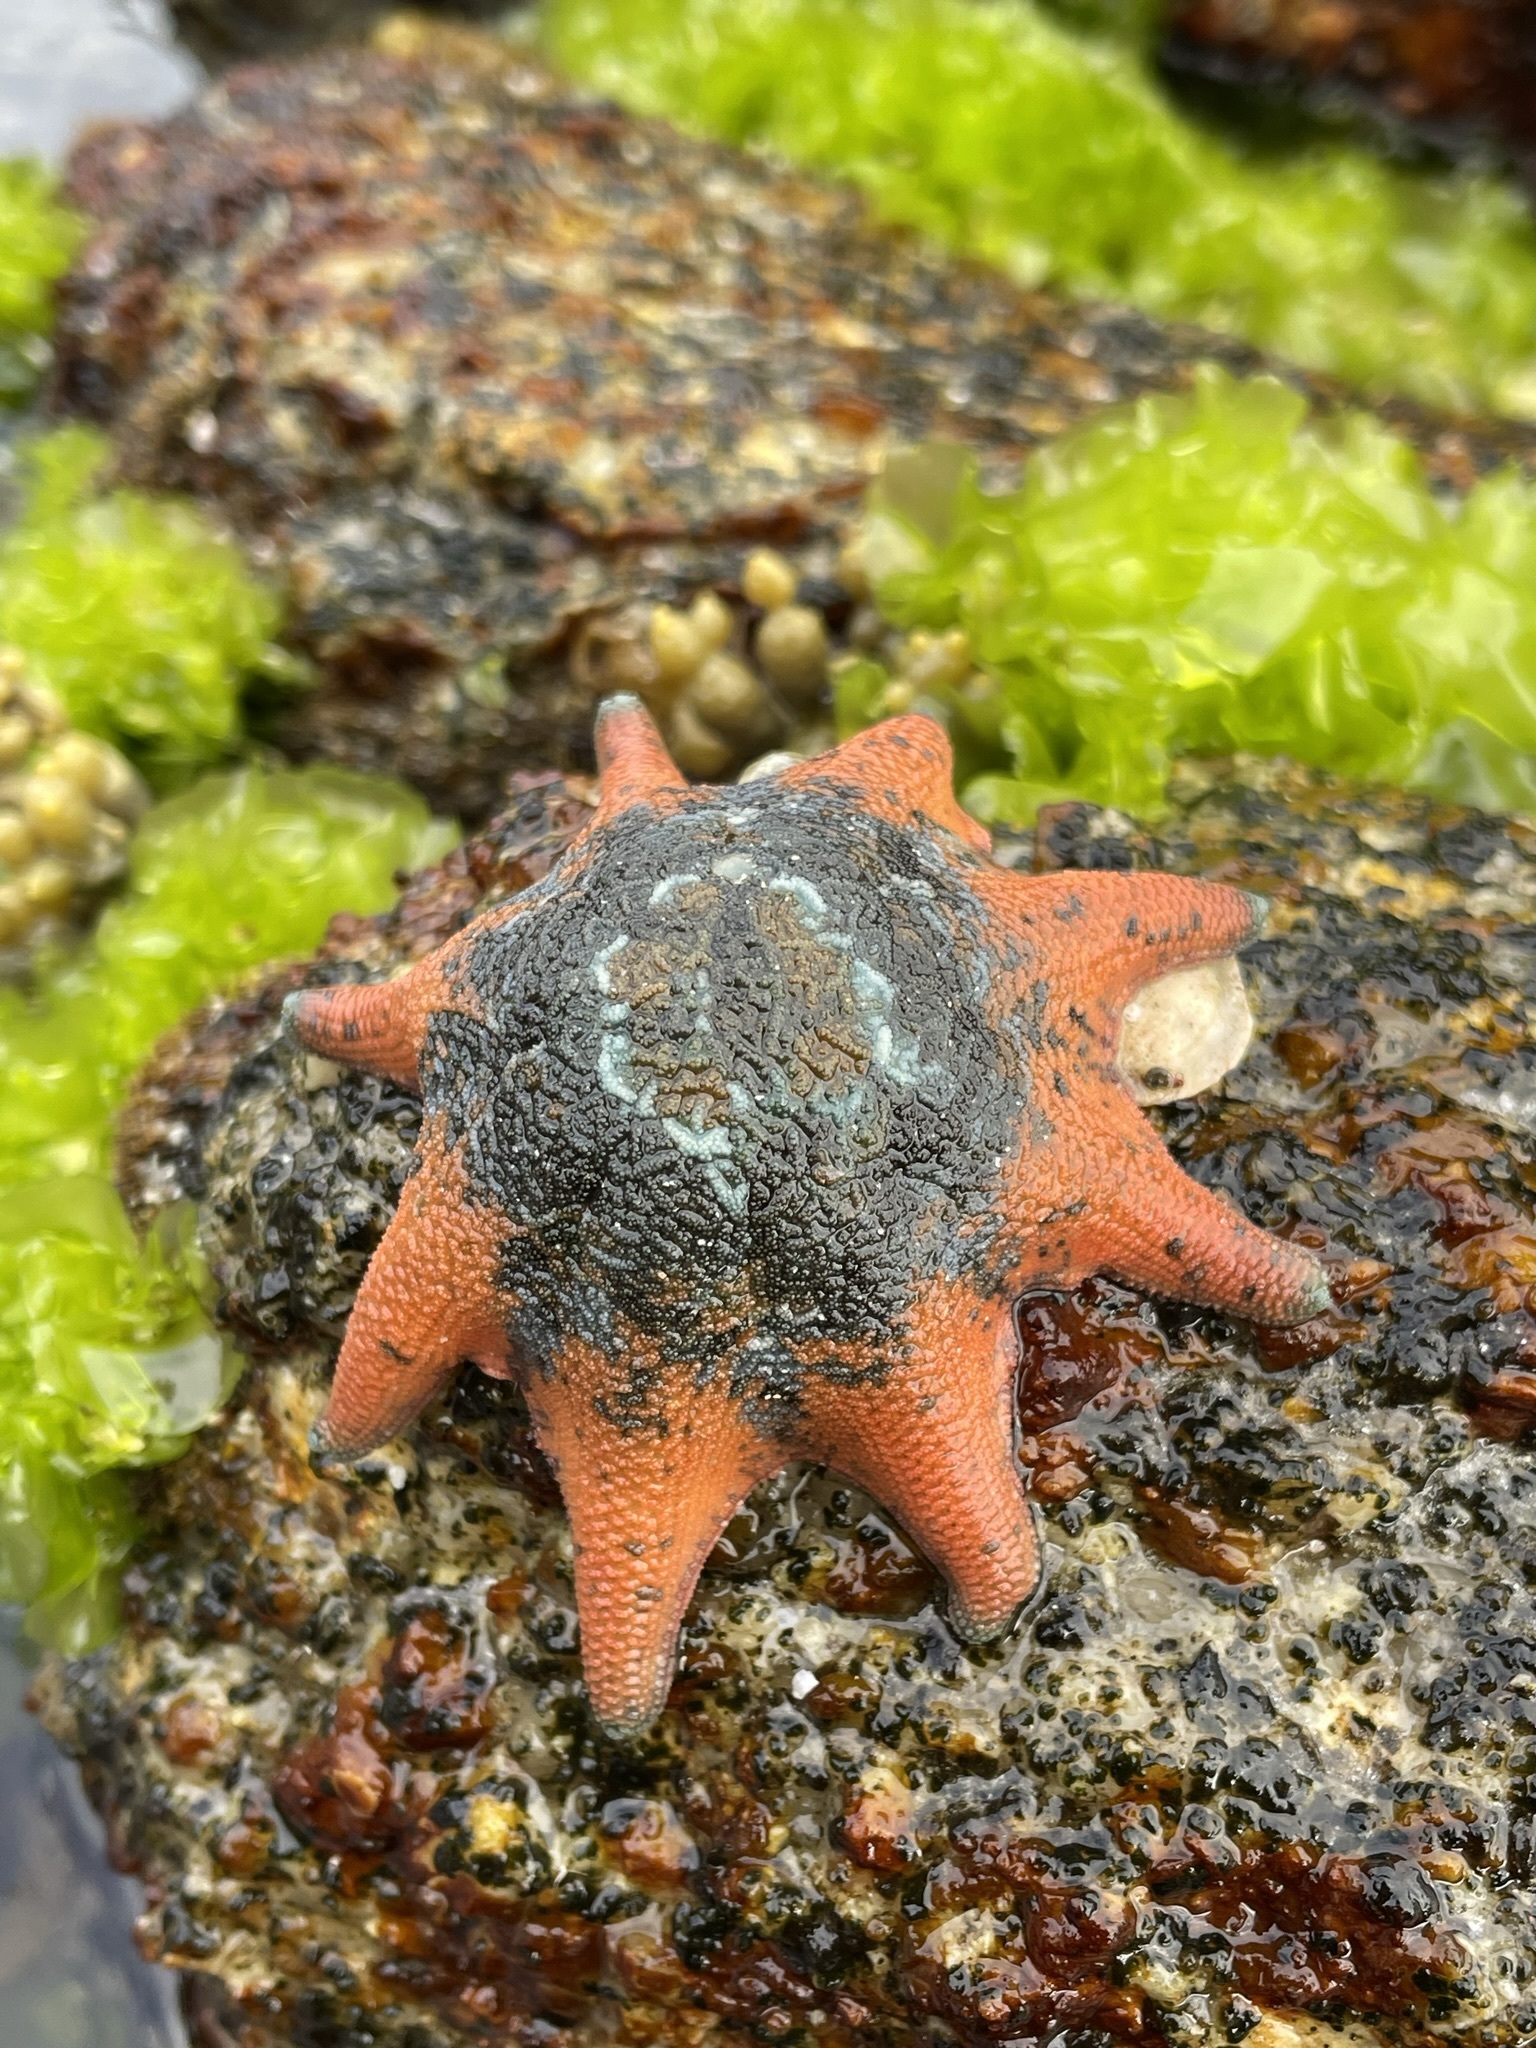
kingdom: Animalia
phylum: Echinodermata
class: Asteroidea
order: Valvatida
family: Asterinidae
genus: Meridiastra
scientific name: Meridiastra calcar
